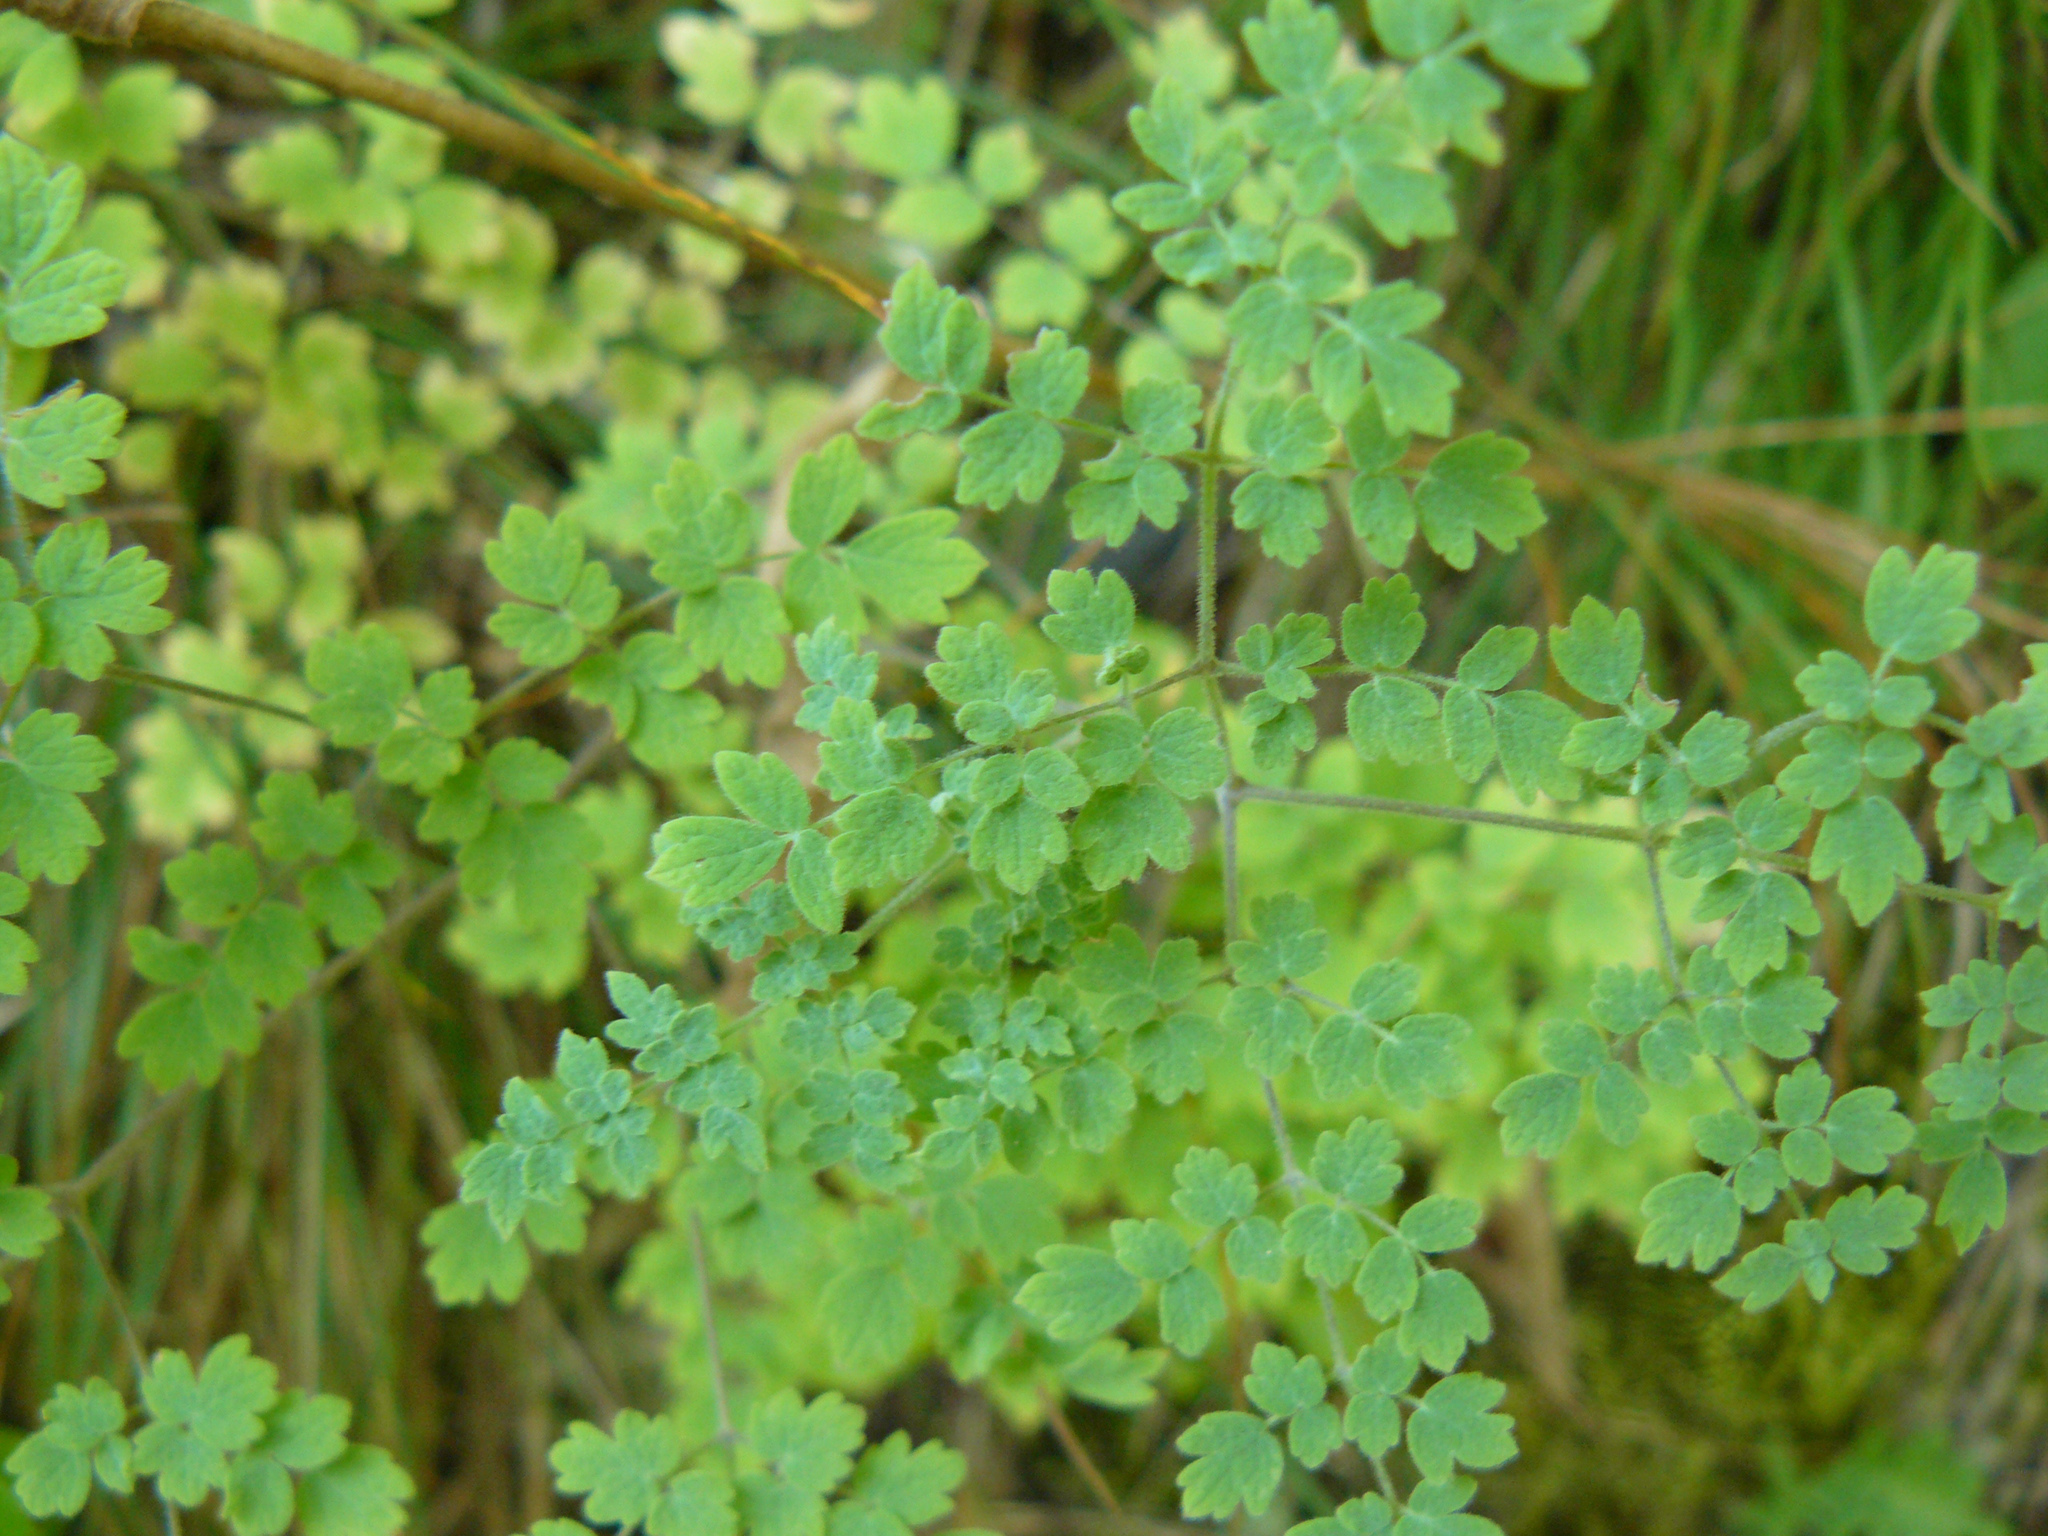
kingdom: Plantae
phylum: Tracheophyta
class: Magnoliopsida
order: Ranunculales
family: Ranunculaceae
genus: Thalictrum
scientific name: Thalictrum minus
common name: Lesser meadow-rue
